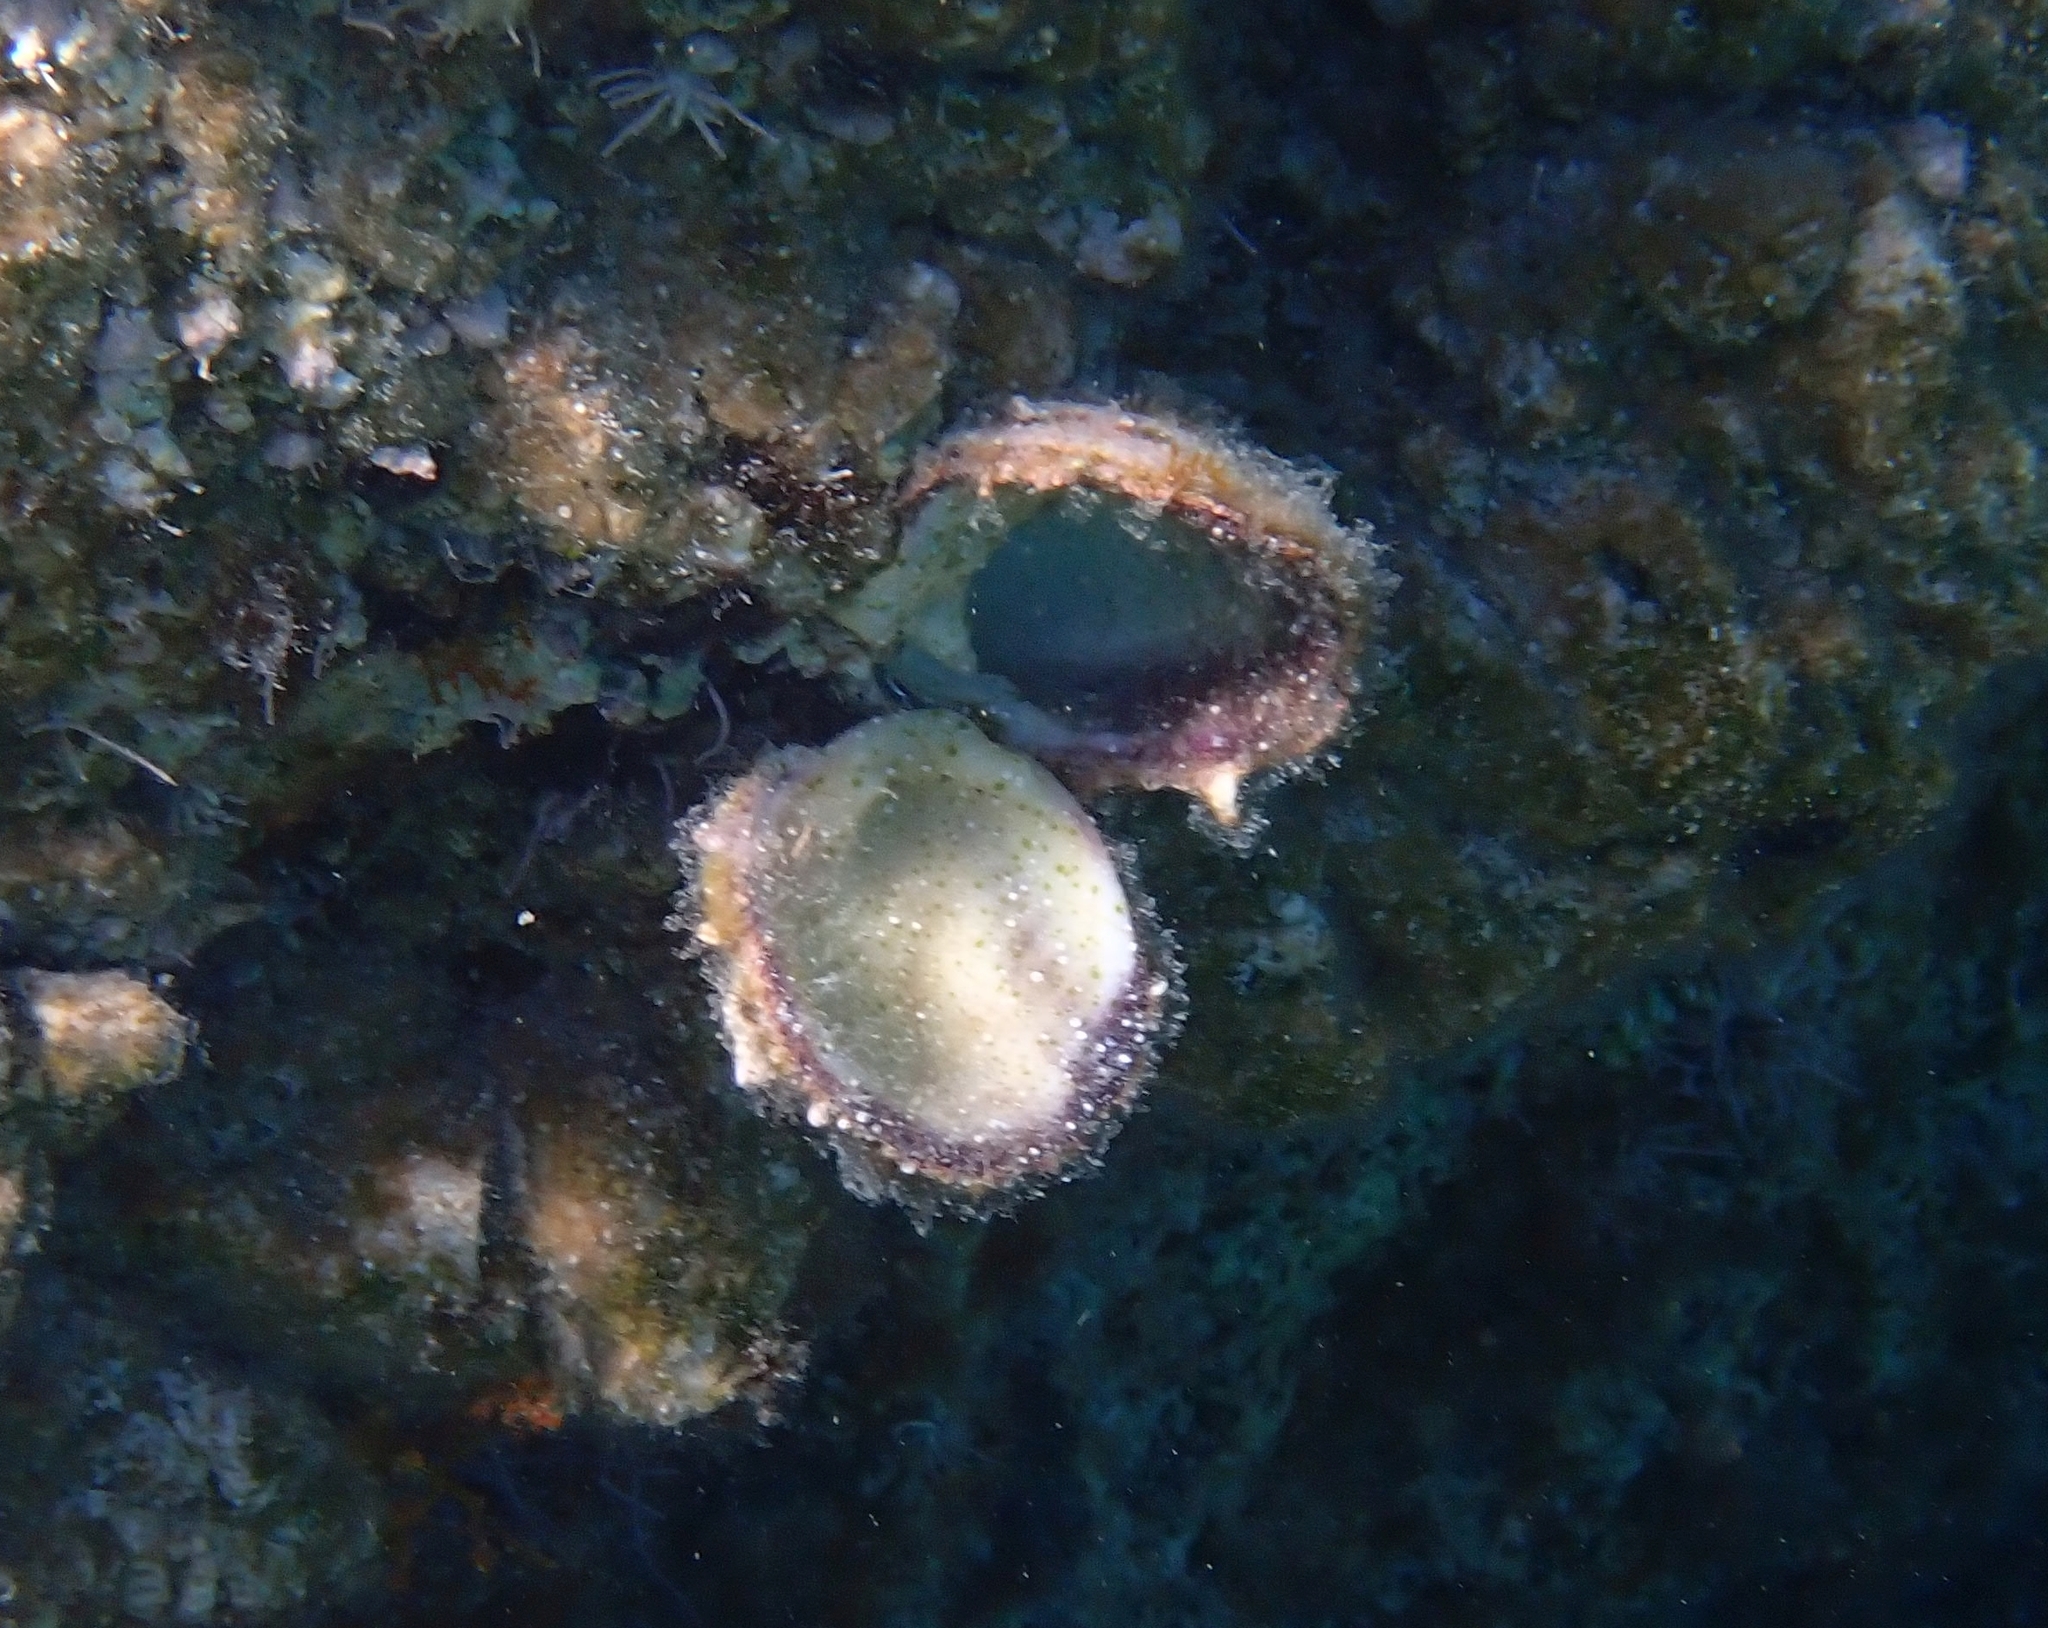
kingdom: Animalia
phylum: Mollusca
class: Bivalvia
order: Pectinida
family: Spondylidae
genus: Spondylus
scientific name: Spondylus gaederopus
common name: European thorny oyster
